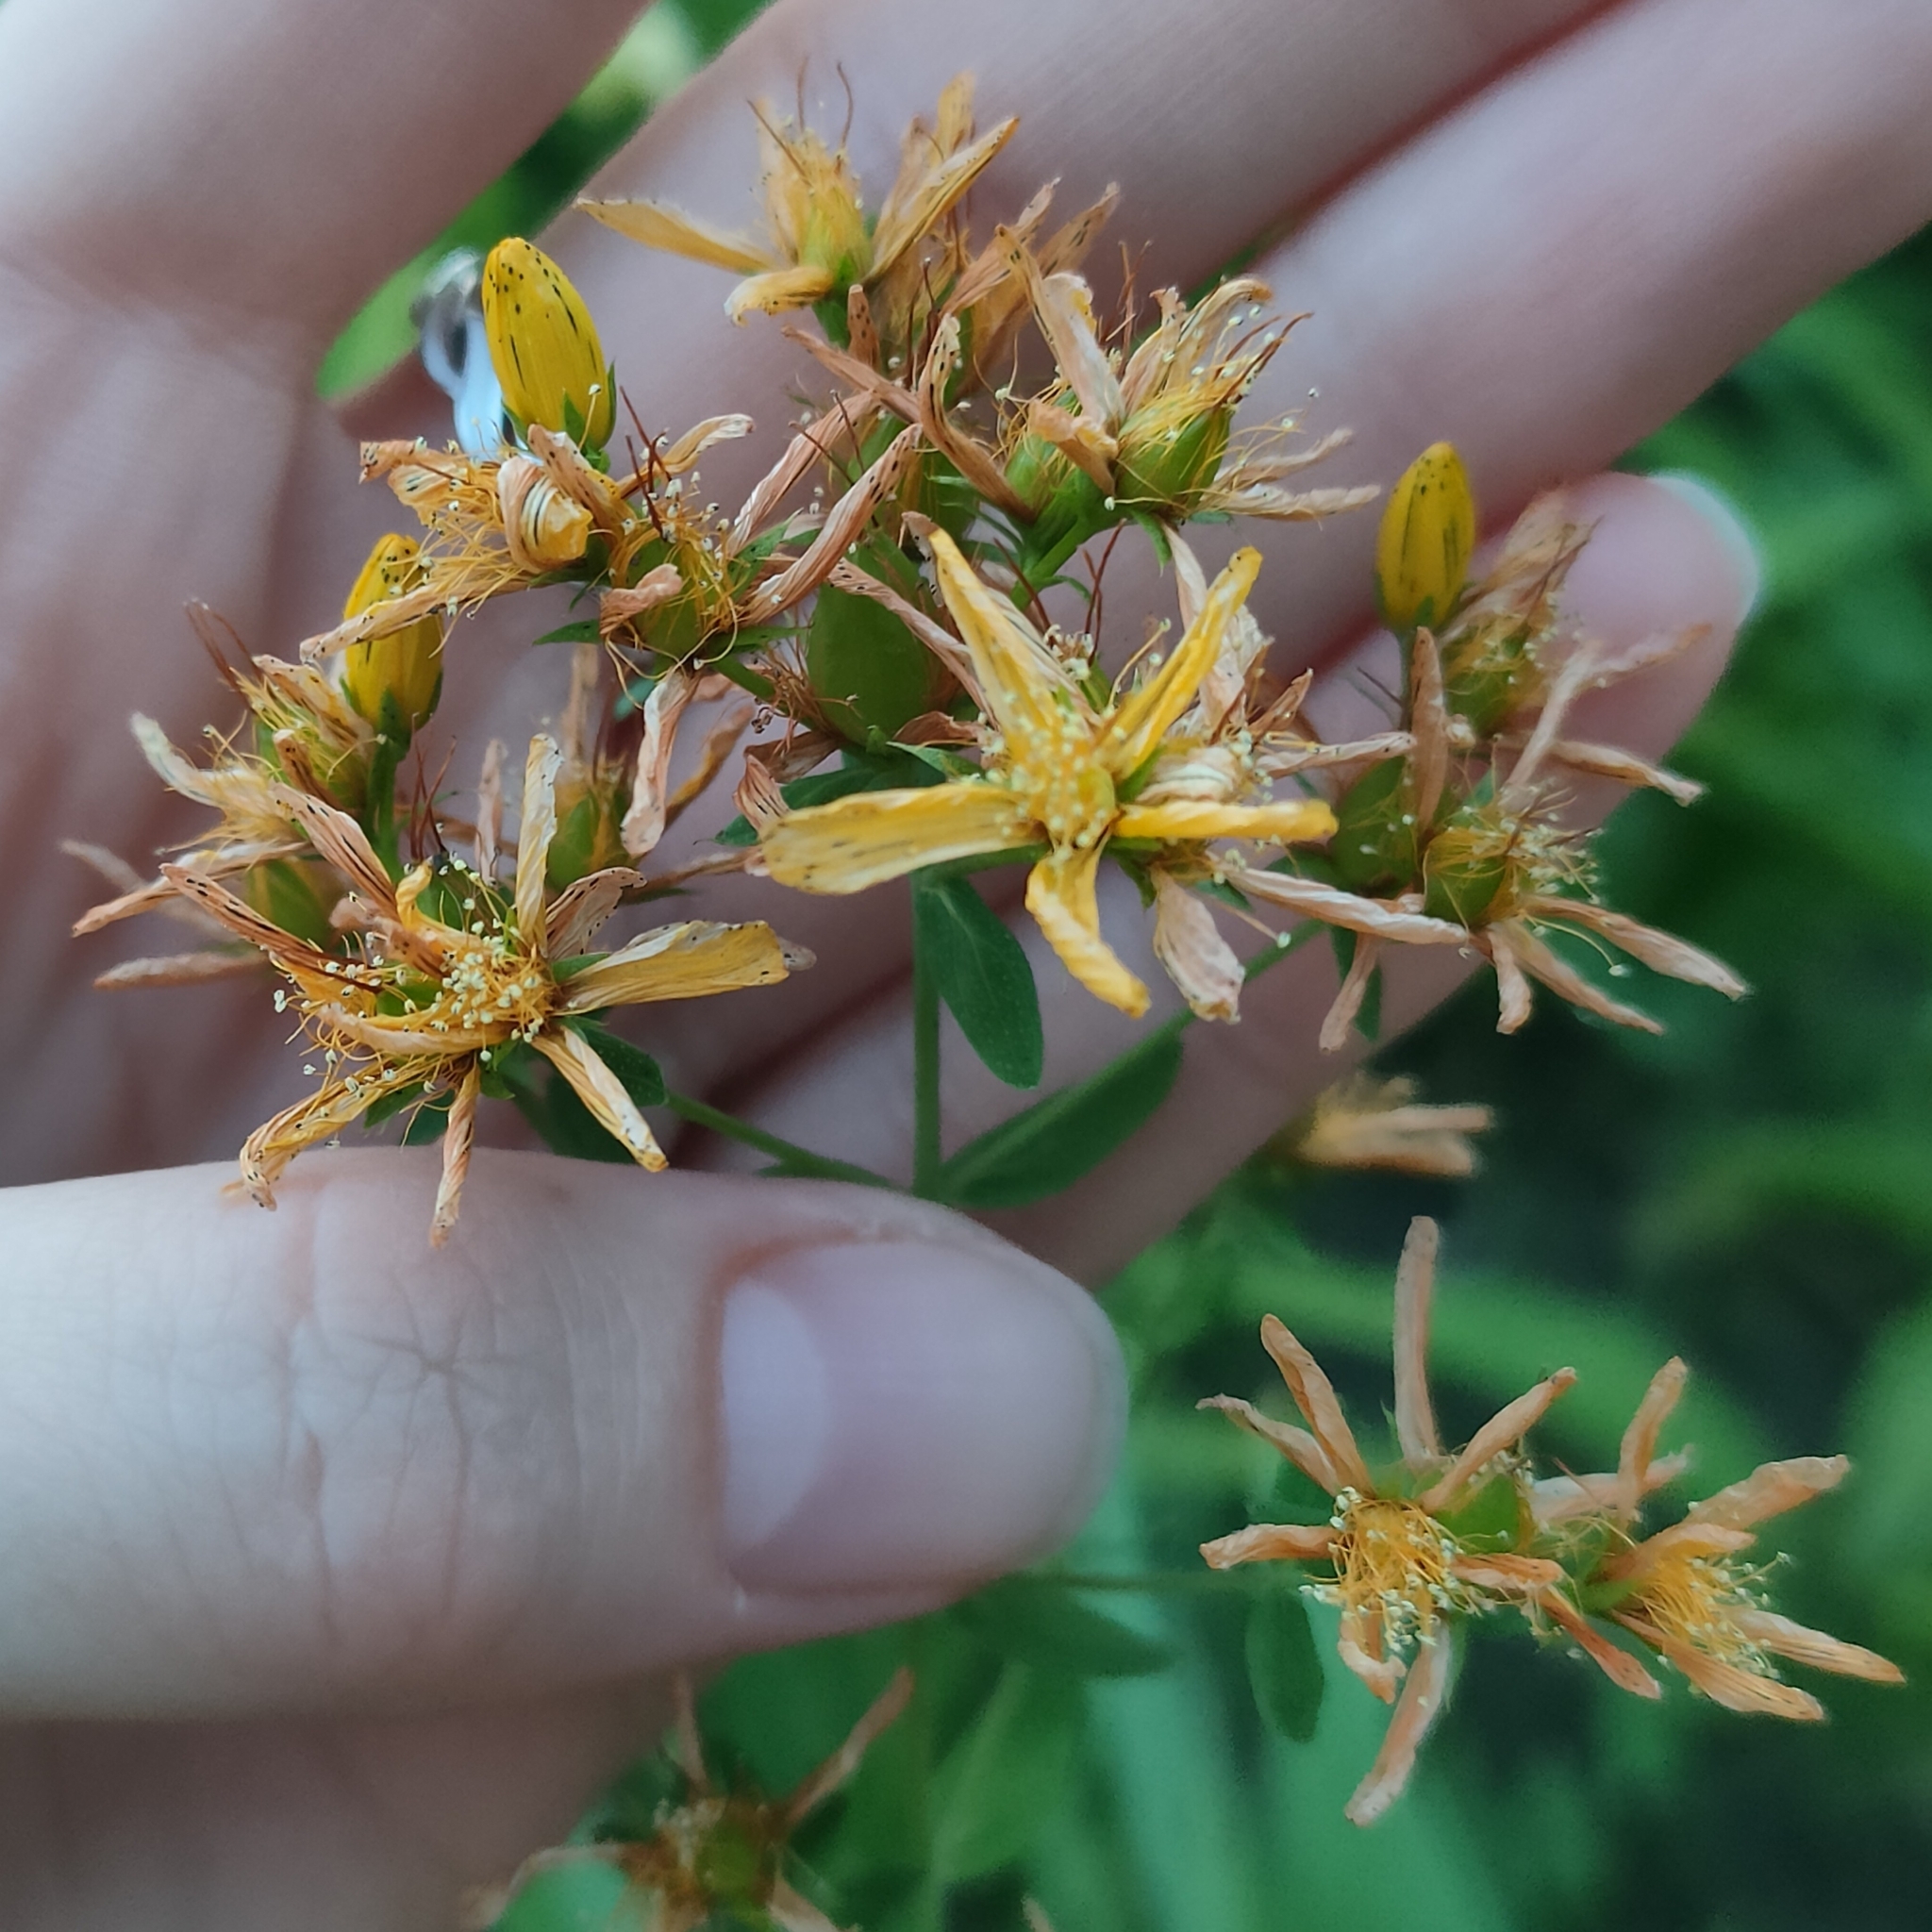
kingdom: Plantae
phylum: Tracheophyta
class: Magnoliopsida
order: Malpighiales
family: Hypericaceae
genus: Hypericum
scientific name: Hypericum perforatum
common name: Common st. johnswort
